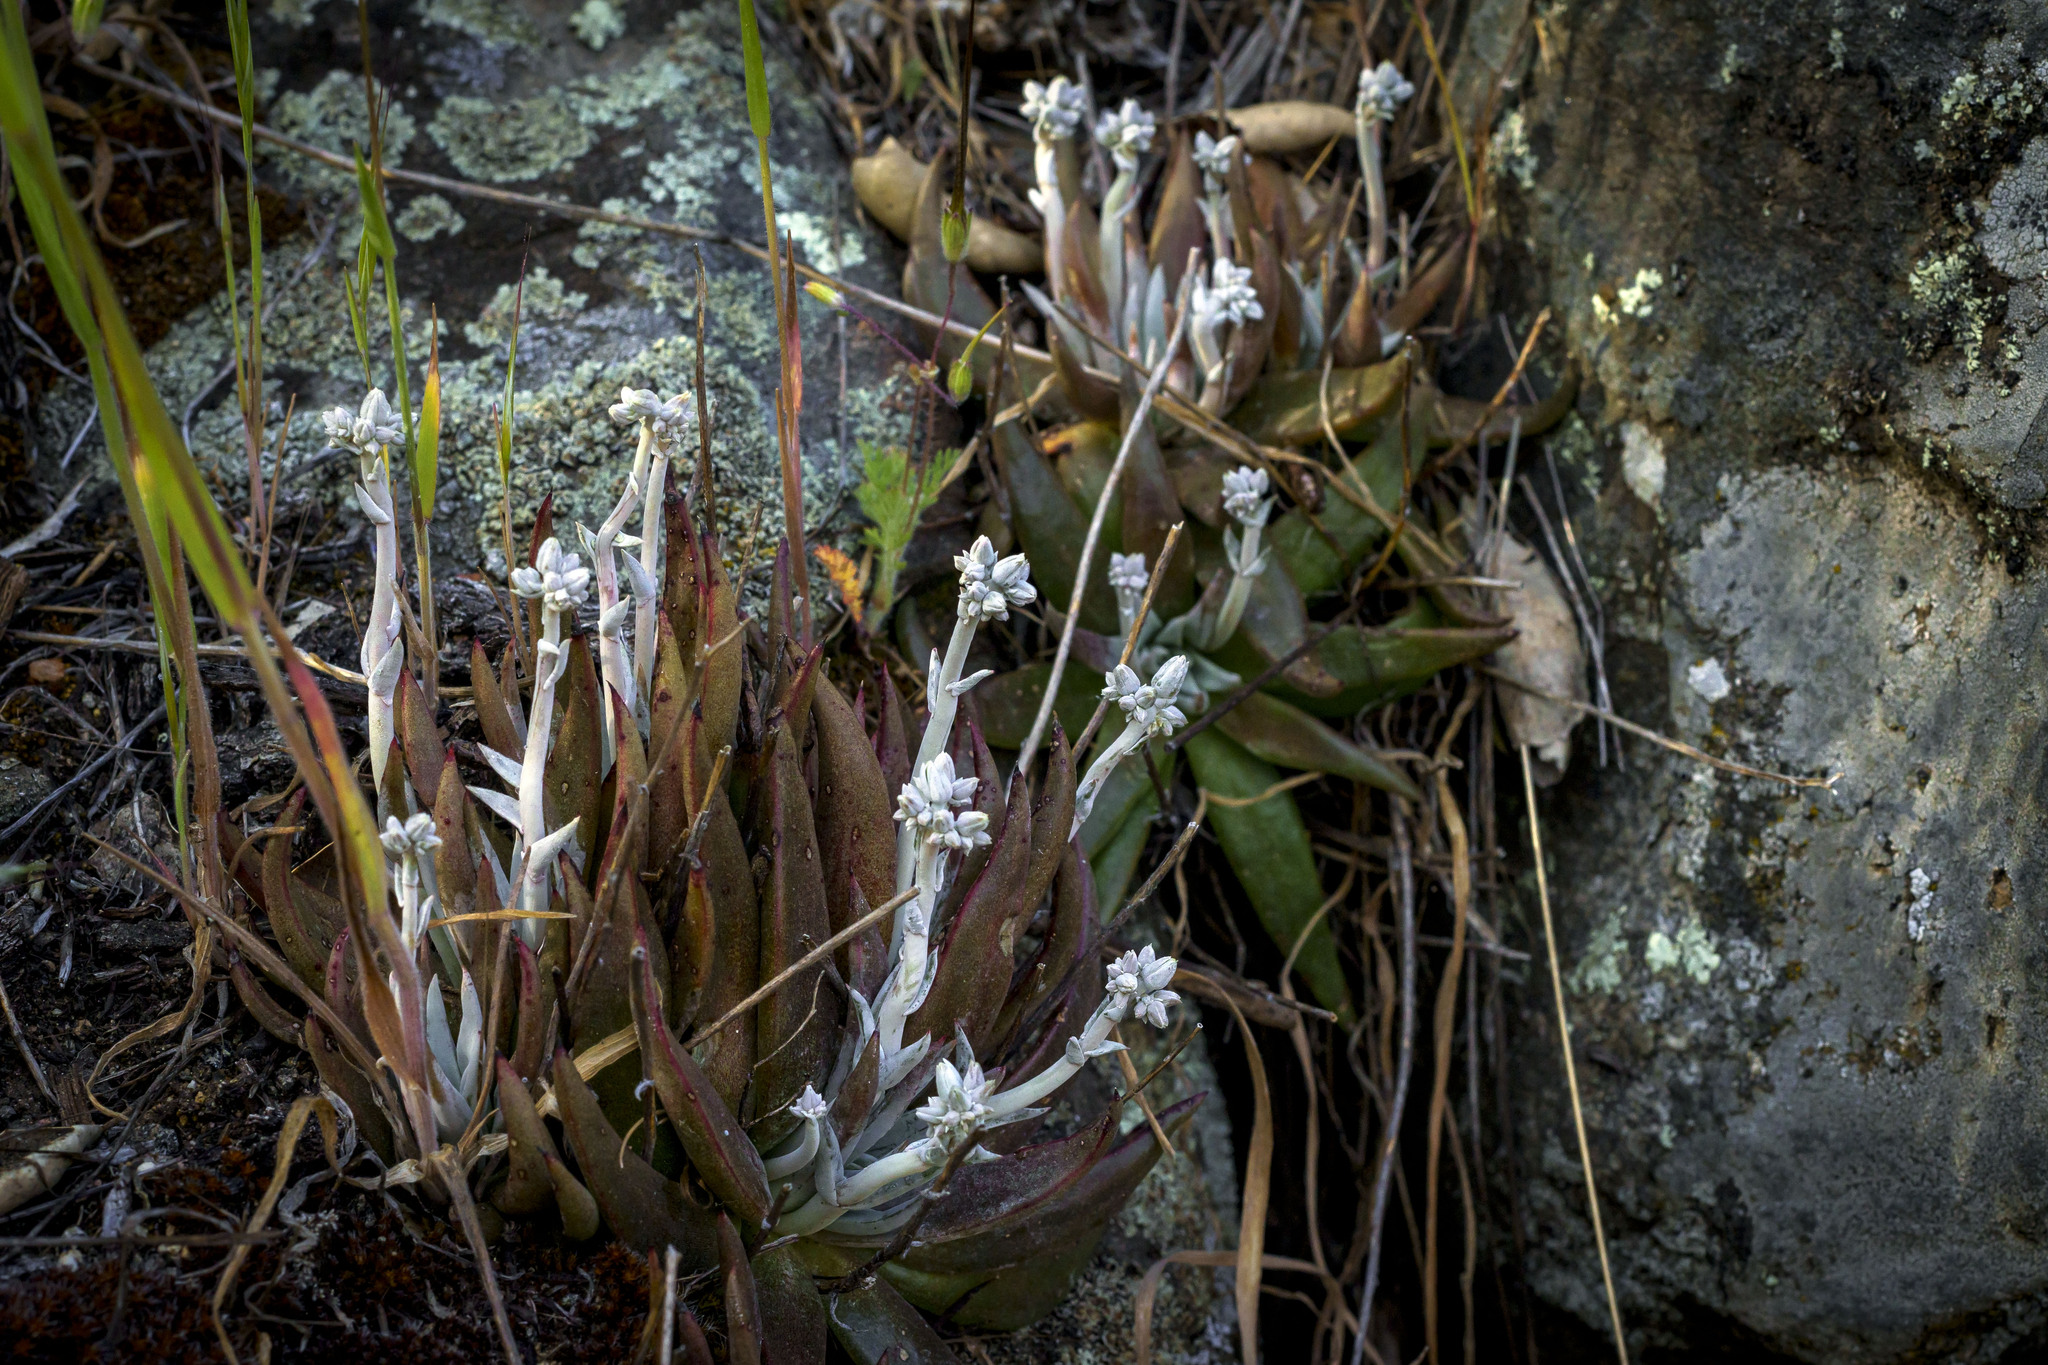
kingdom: Plantae
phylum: Tracheophyta
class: Magnoliopsida
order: Saxifragales
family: Crassulaceae
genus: Dudleya
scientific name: Dudleya abramsii
